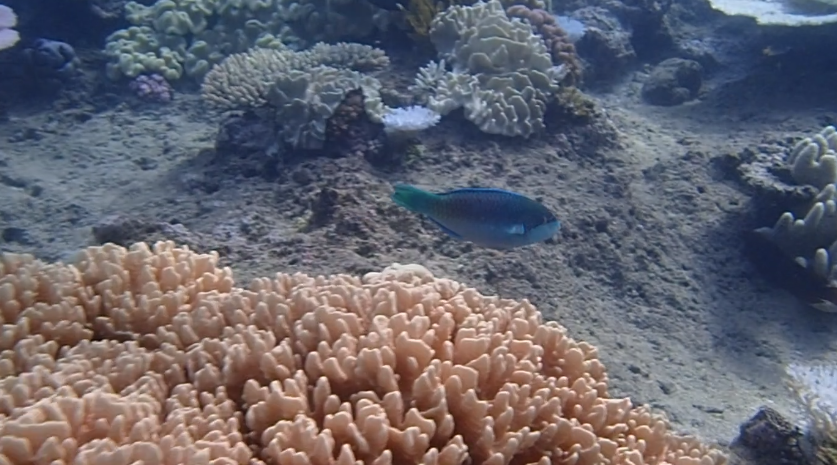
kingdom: Animalia
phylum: Chordata
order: Perciformes
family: Scaridae
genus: Scarus
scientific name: Scarus globiceps
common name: Globehead parrotfish
